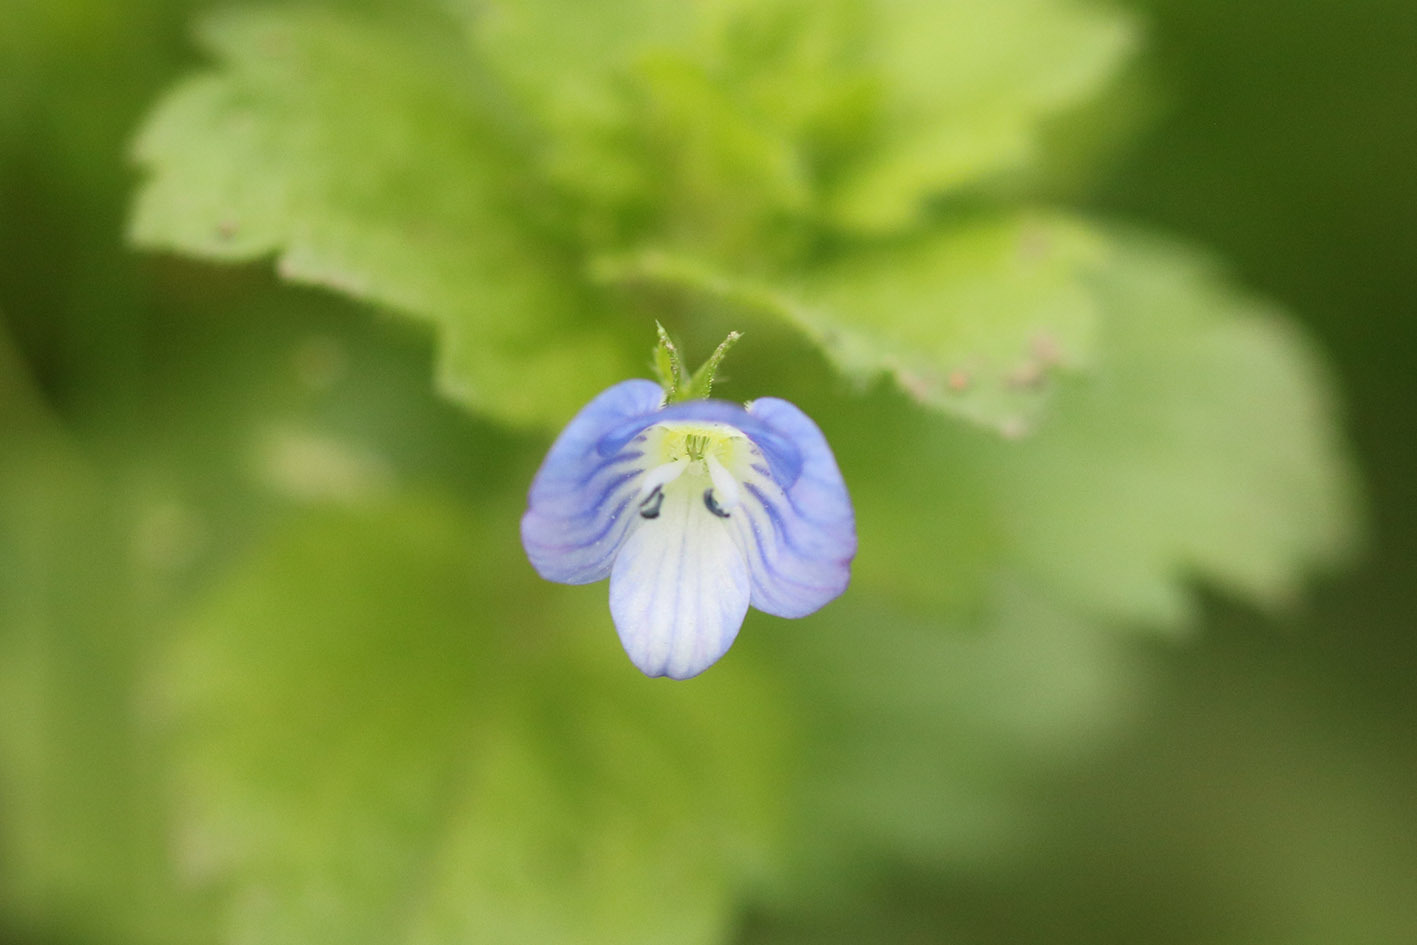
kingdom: Plantae
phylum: Tracheophyta
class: Magnoliopsida
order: Lamiales
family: Plantaginaceae
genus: Veronica
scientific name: Veronica persica
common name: Common field-speedwell
